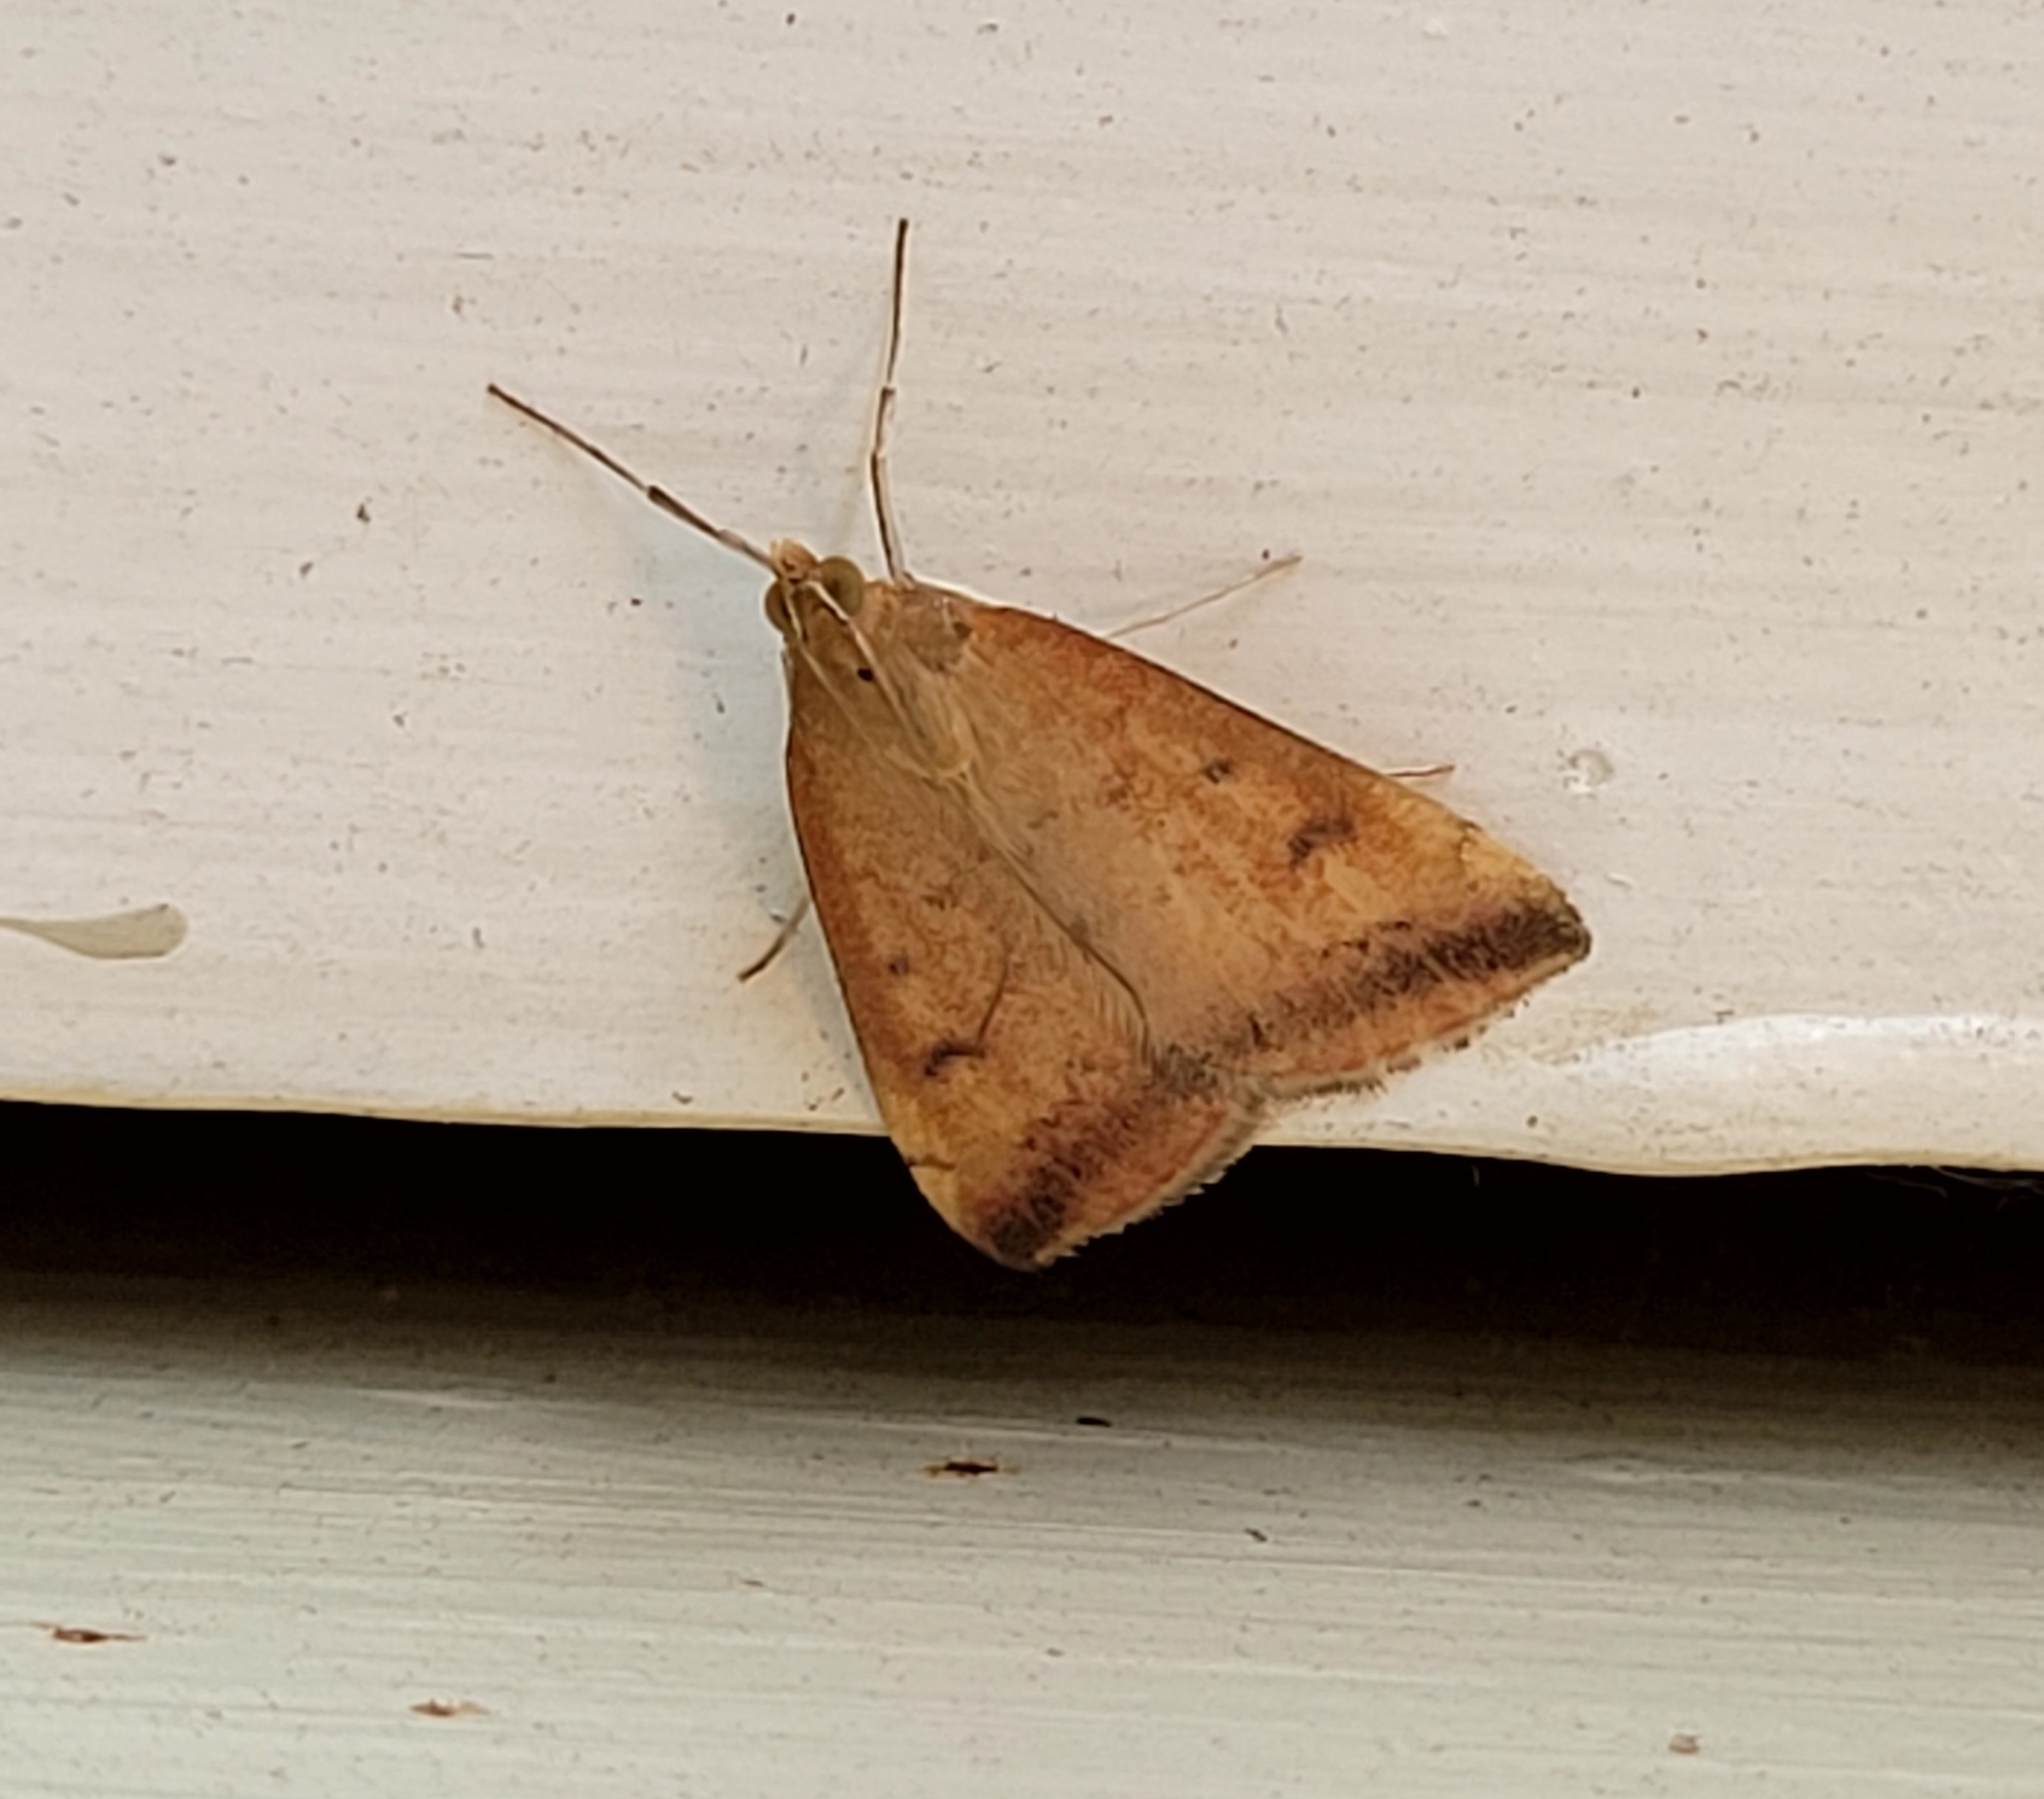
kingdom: Animalia
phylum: Arthropoda
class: Insecta
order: Lepidoptera
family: Crambidae
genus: Pyrausta
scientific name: Pyrausta socialis
